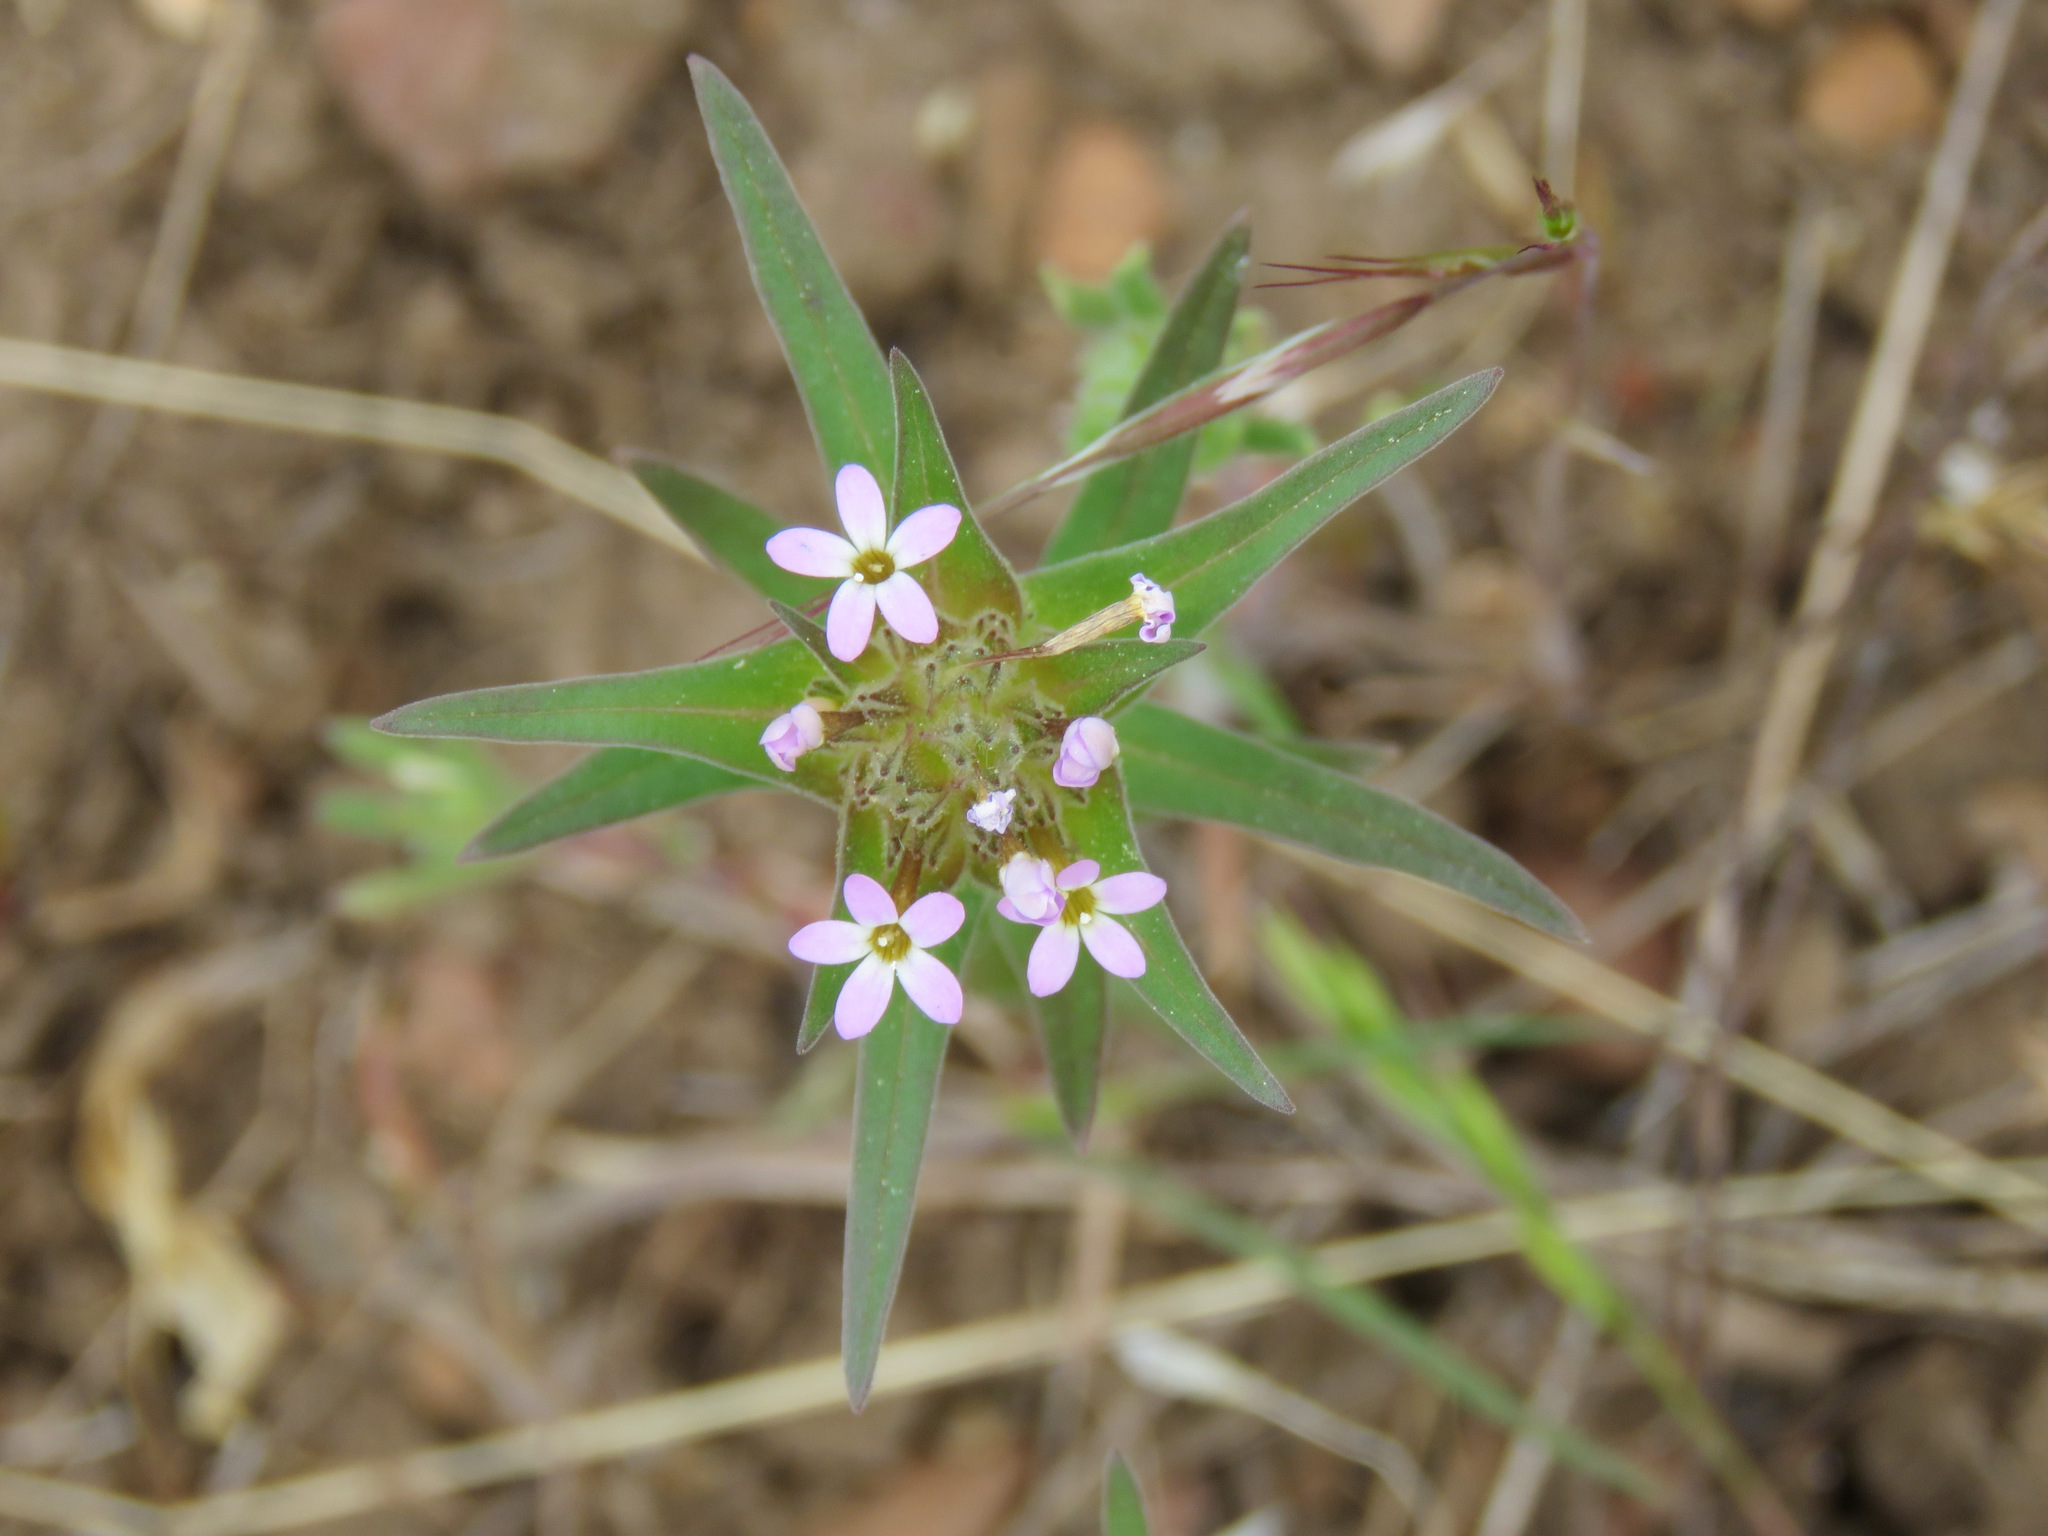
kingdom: Plantae
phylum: Tracheophyta
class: Magnoliopsida
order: Ericales
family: Polemoniaceae
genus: Collomia
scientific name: Collomia linearis
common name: Tiny trumpet
